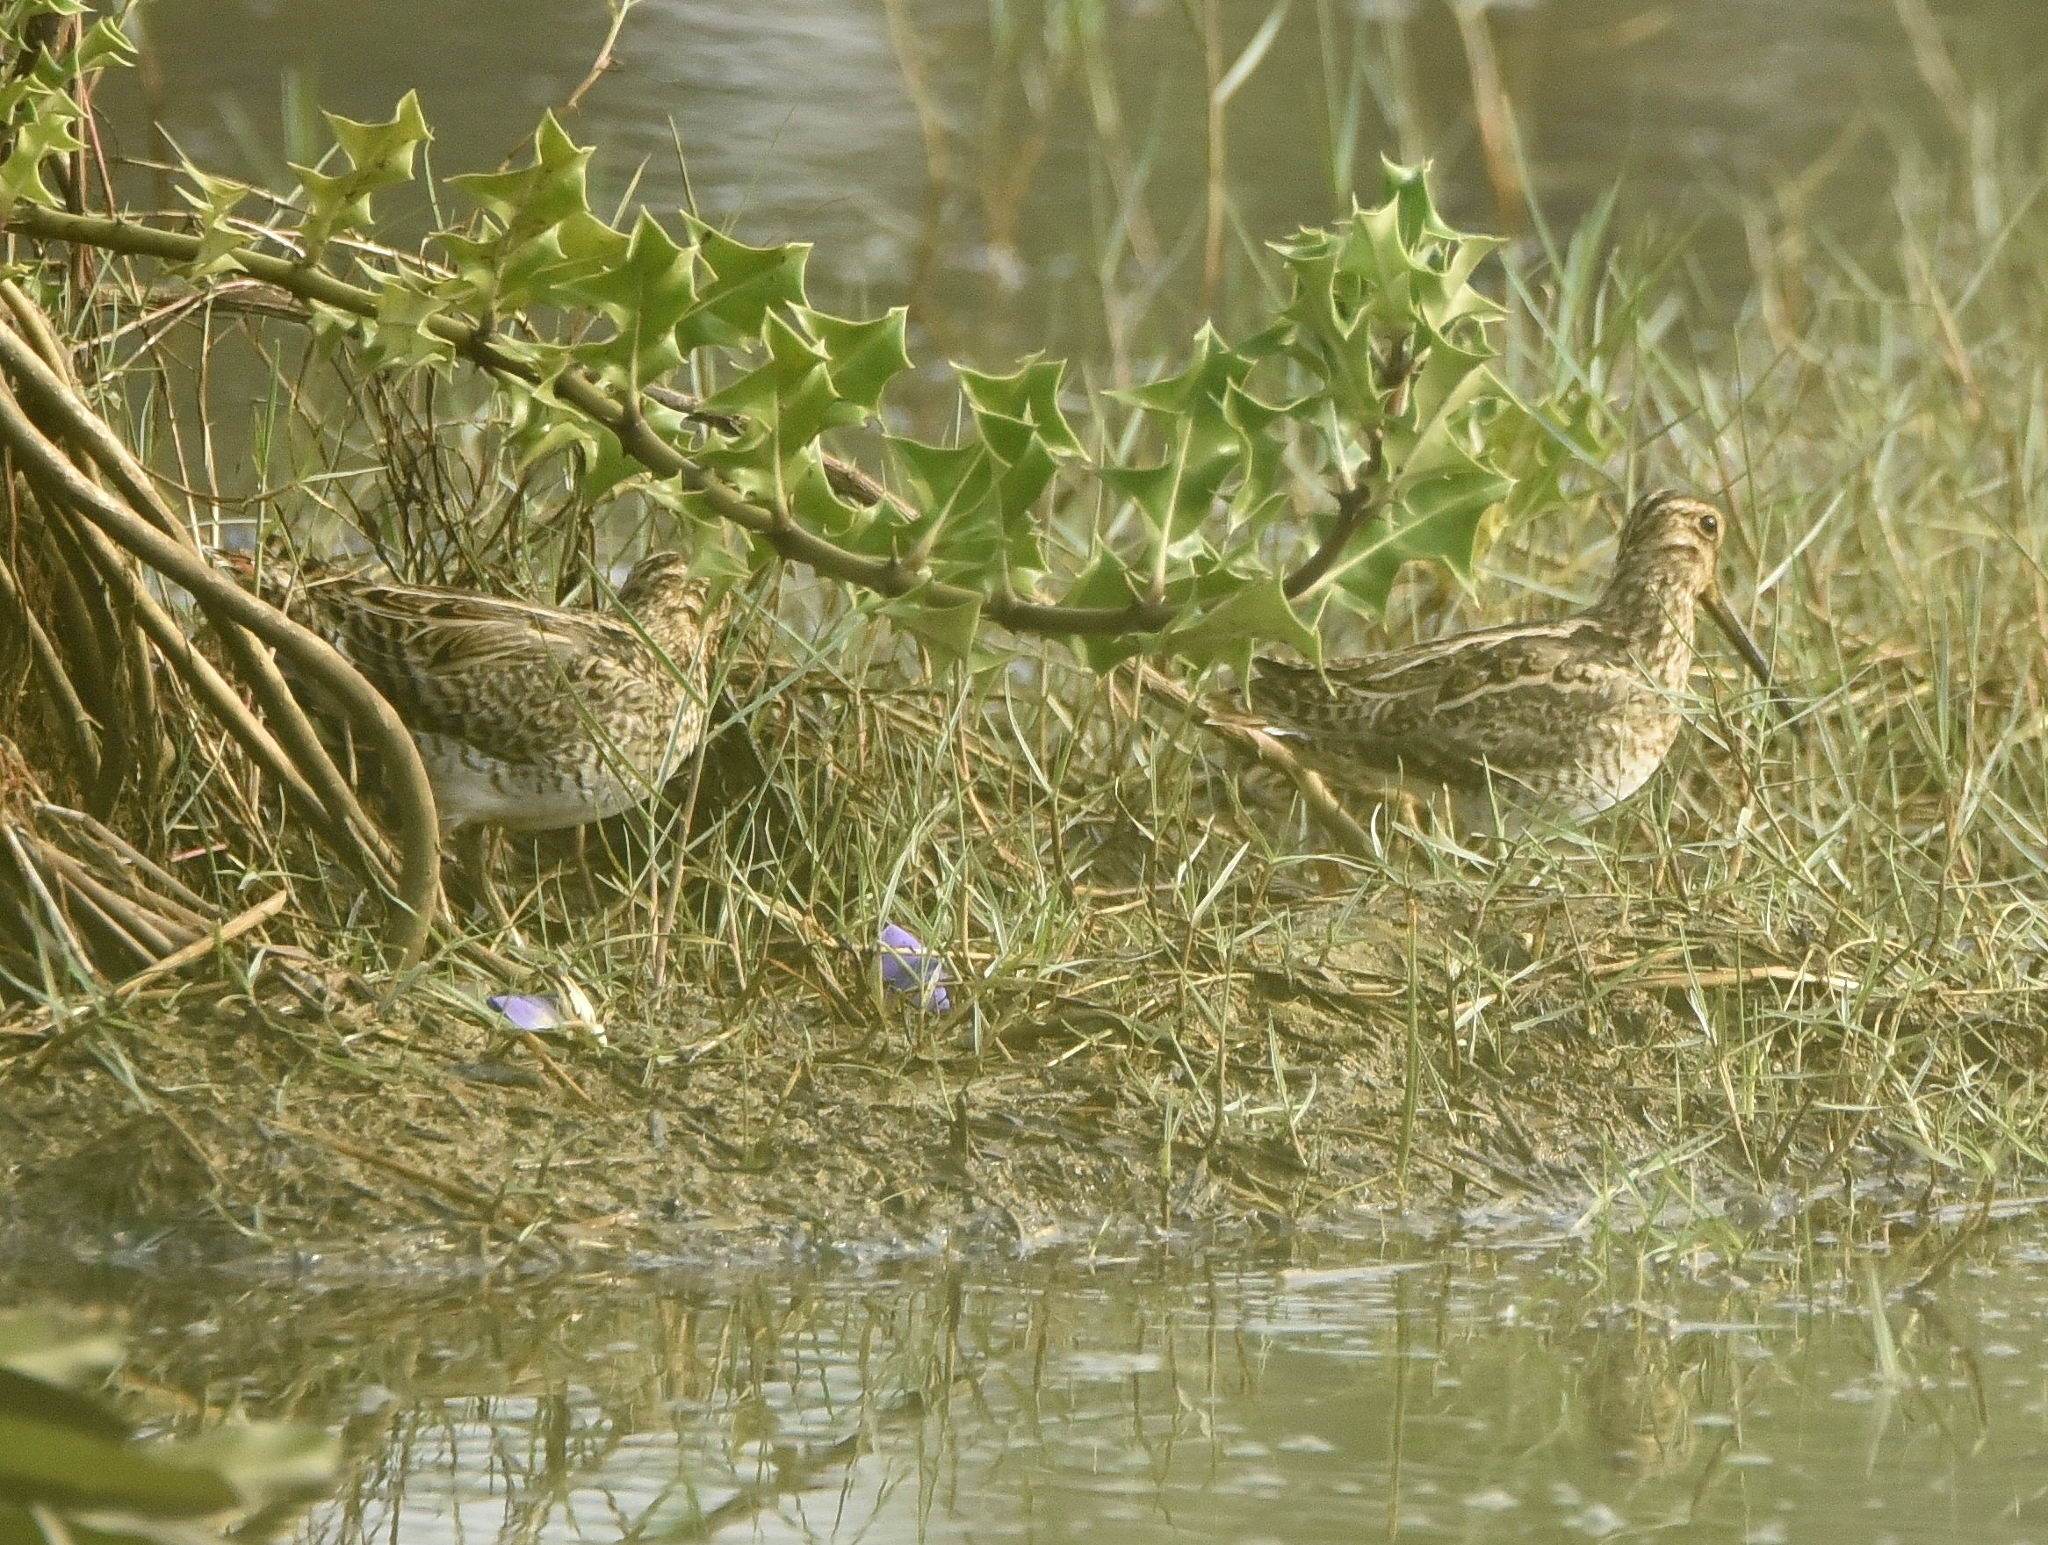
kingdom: Animalia
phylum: Chordata
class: Aves
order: Charadriiformes
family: Scolopacidae
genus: Gallinago
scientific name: Gallinago gallinago
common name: Common snipe
